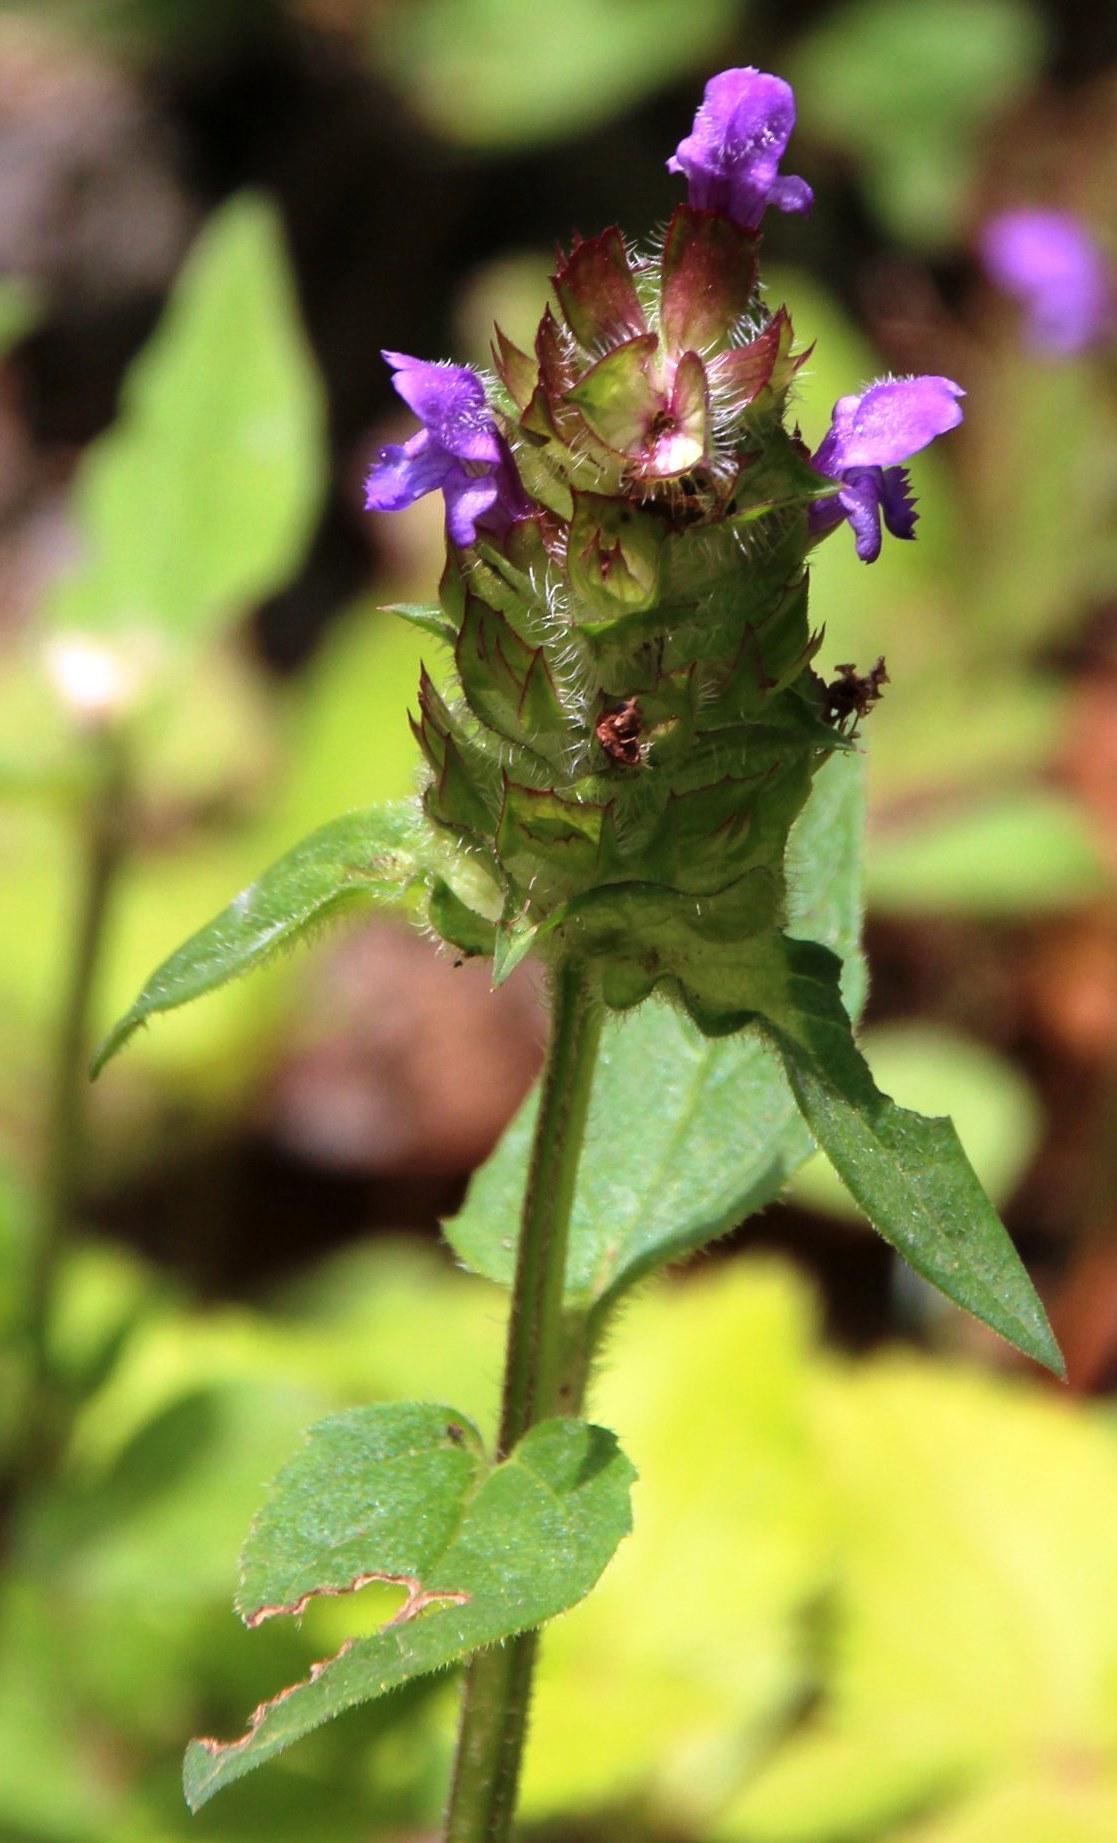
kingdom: Plantae
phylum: Tracheophyta
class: Magnoliopsida
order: Lamiales
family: Lamiaceae
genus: Prunella
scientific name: Prunella vulgaris
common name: Heal-all
